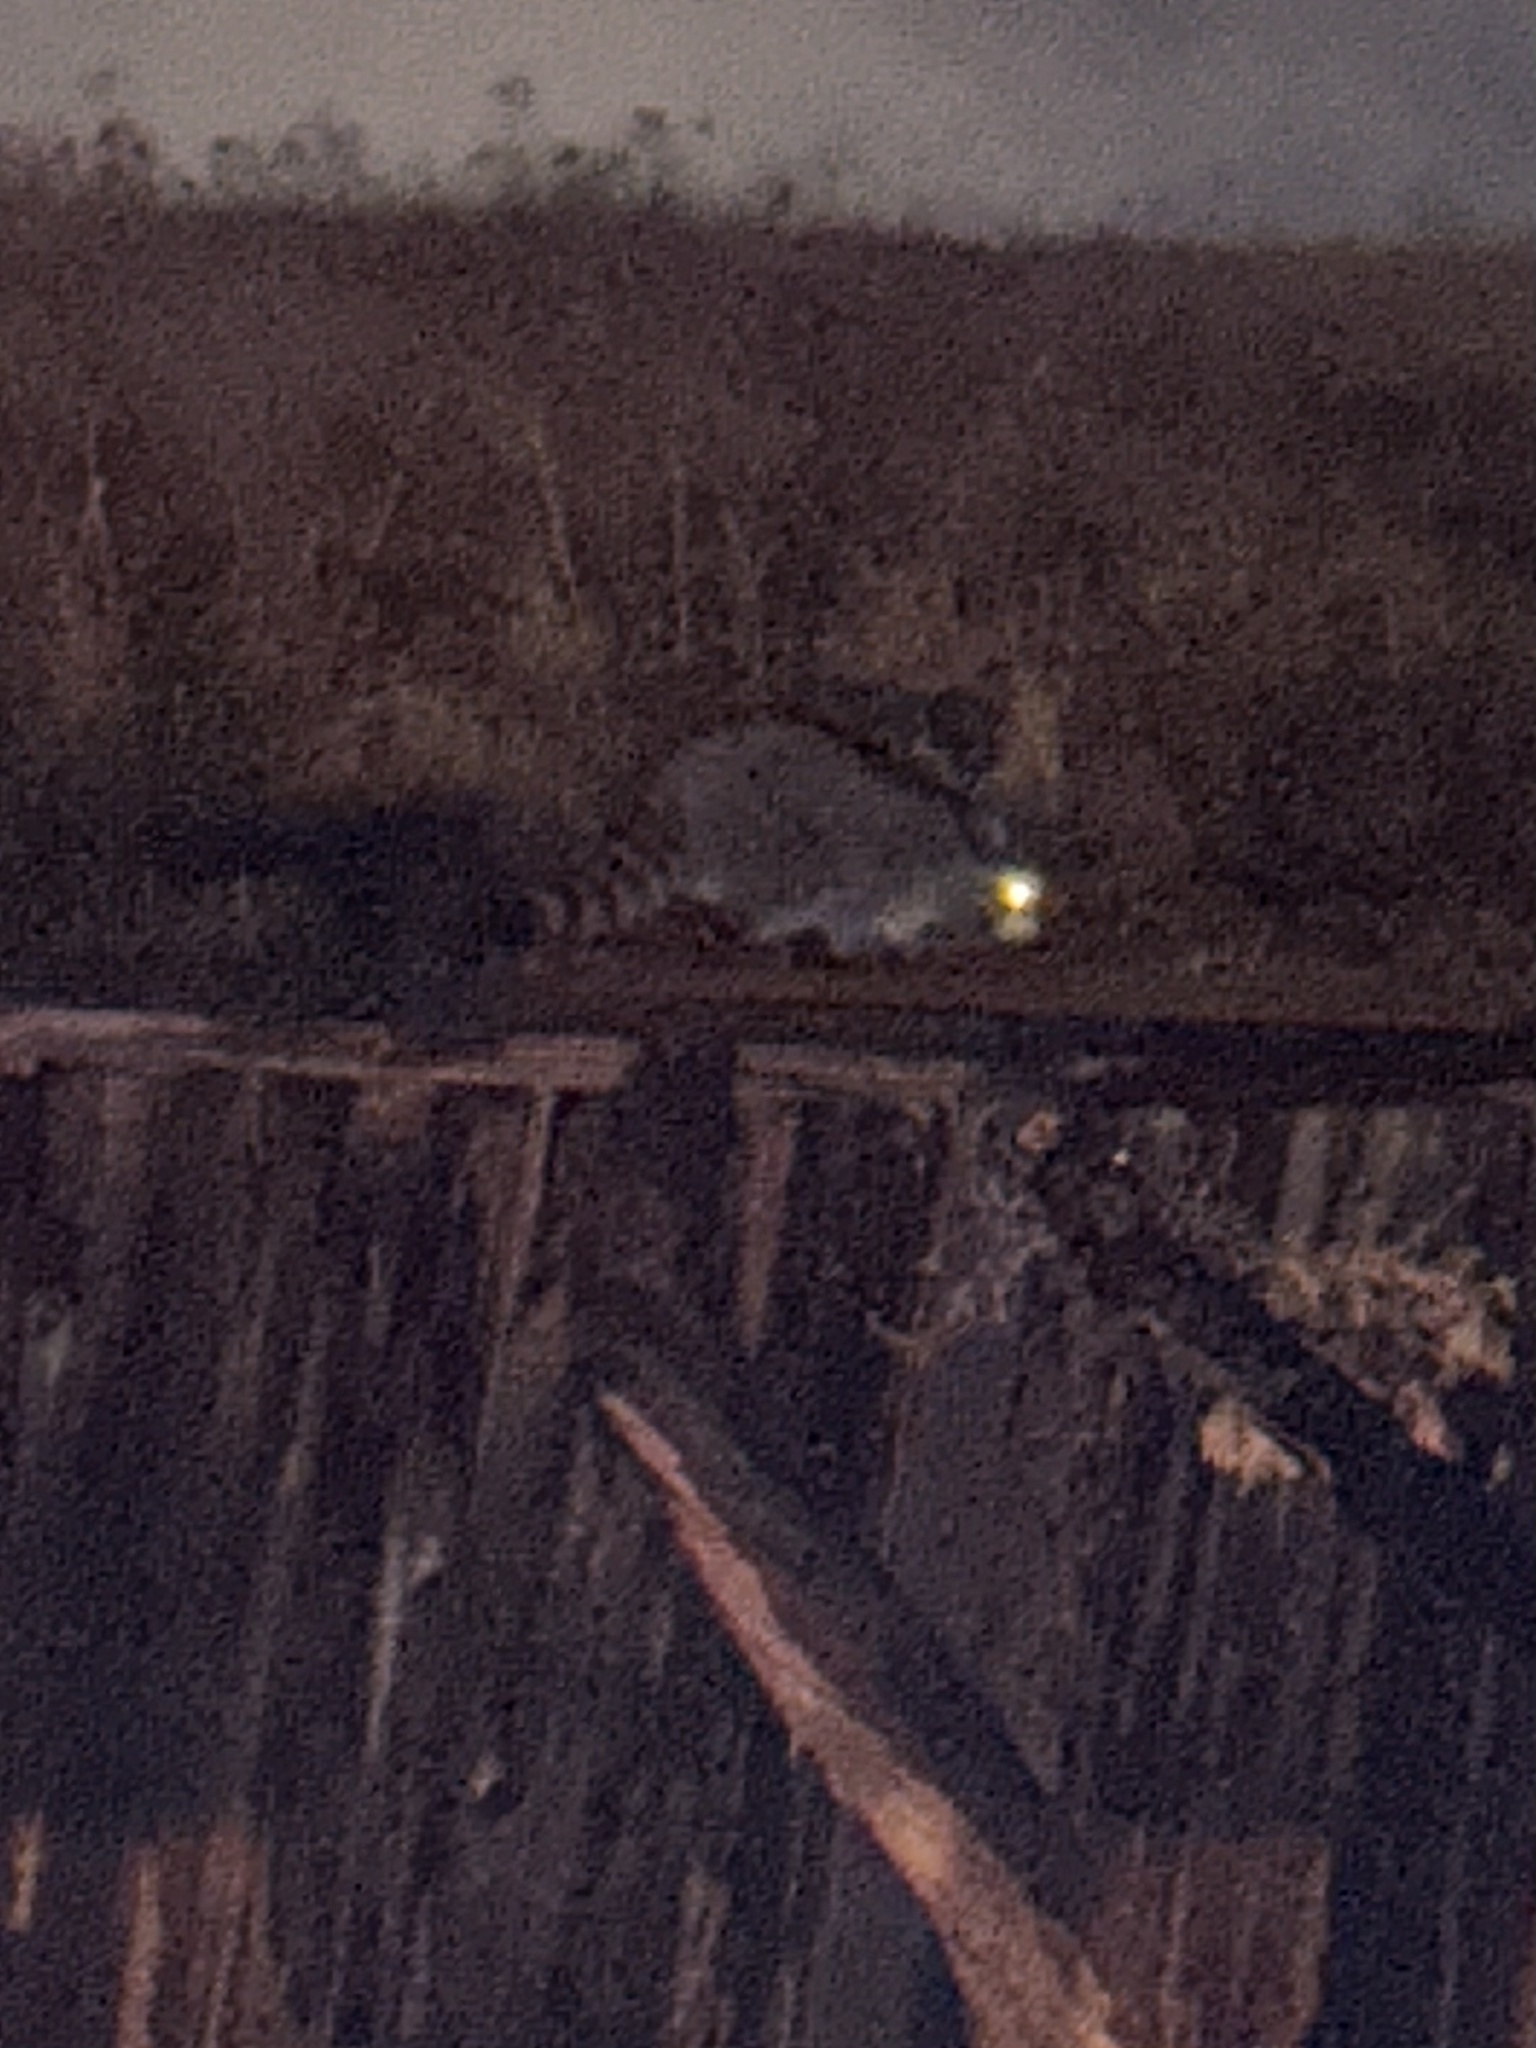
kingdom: Animalia
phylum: Chordata
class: Mammalia
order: Carnivora
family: Procyonidae
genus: Procyon
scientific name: Procyon lotor
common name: Raccoon
